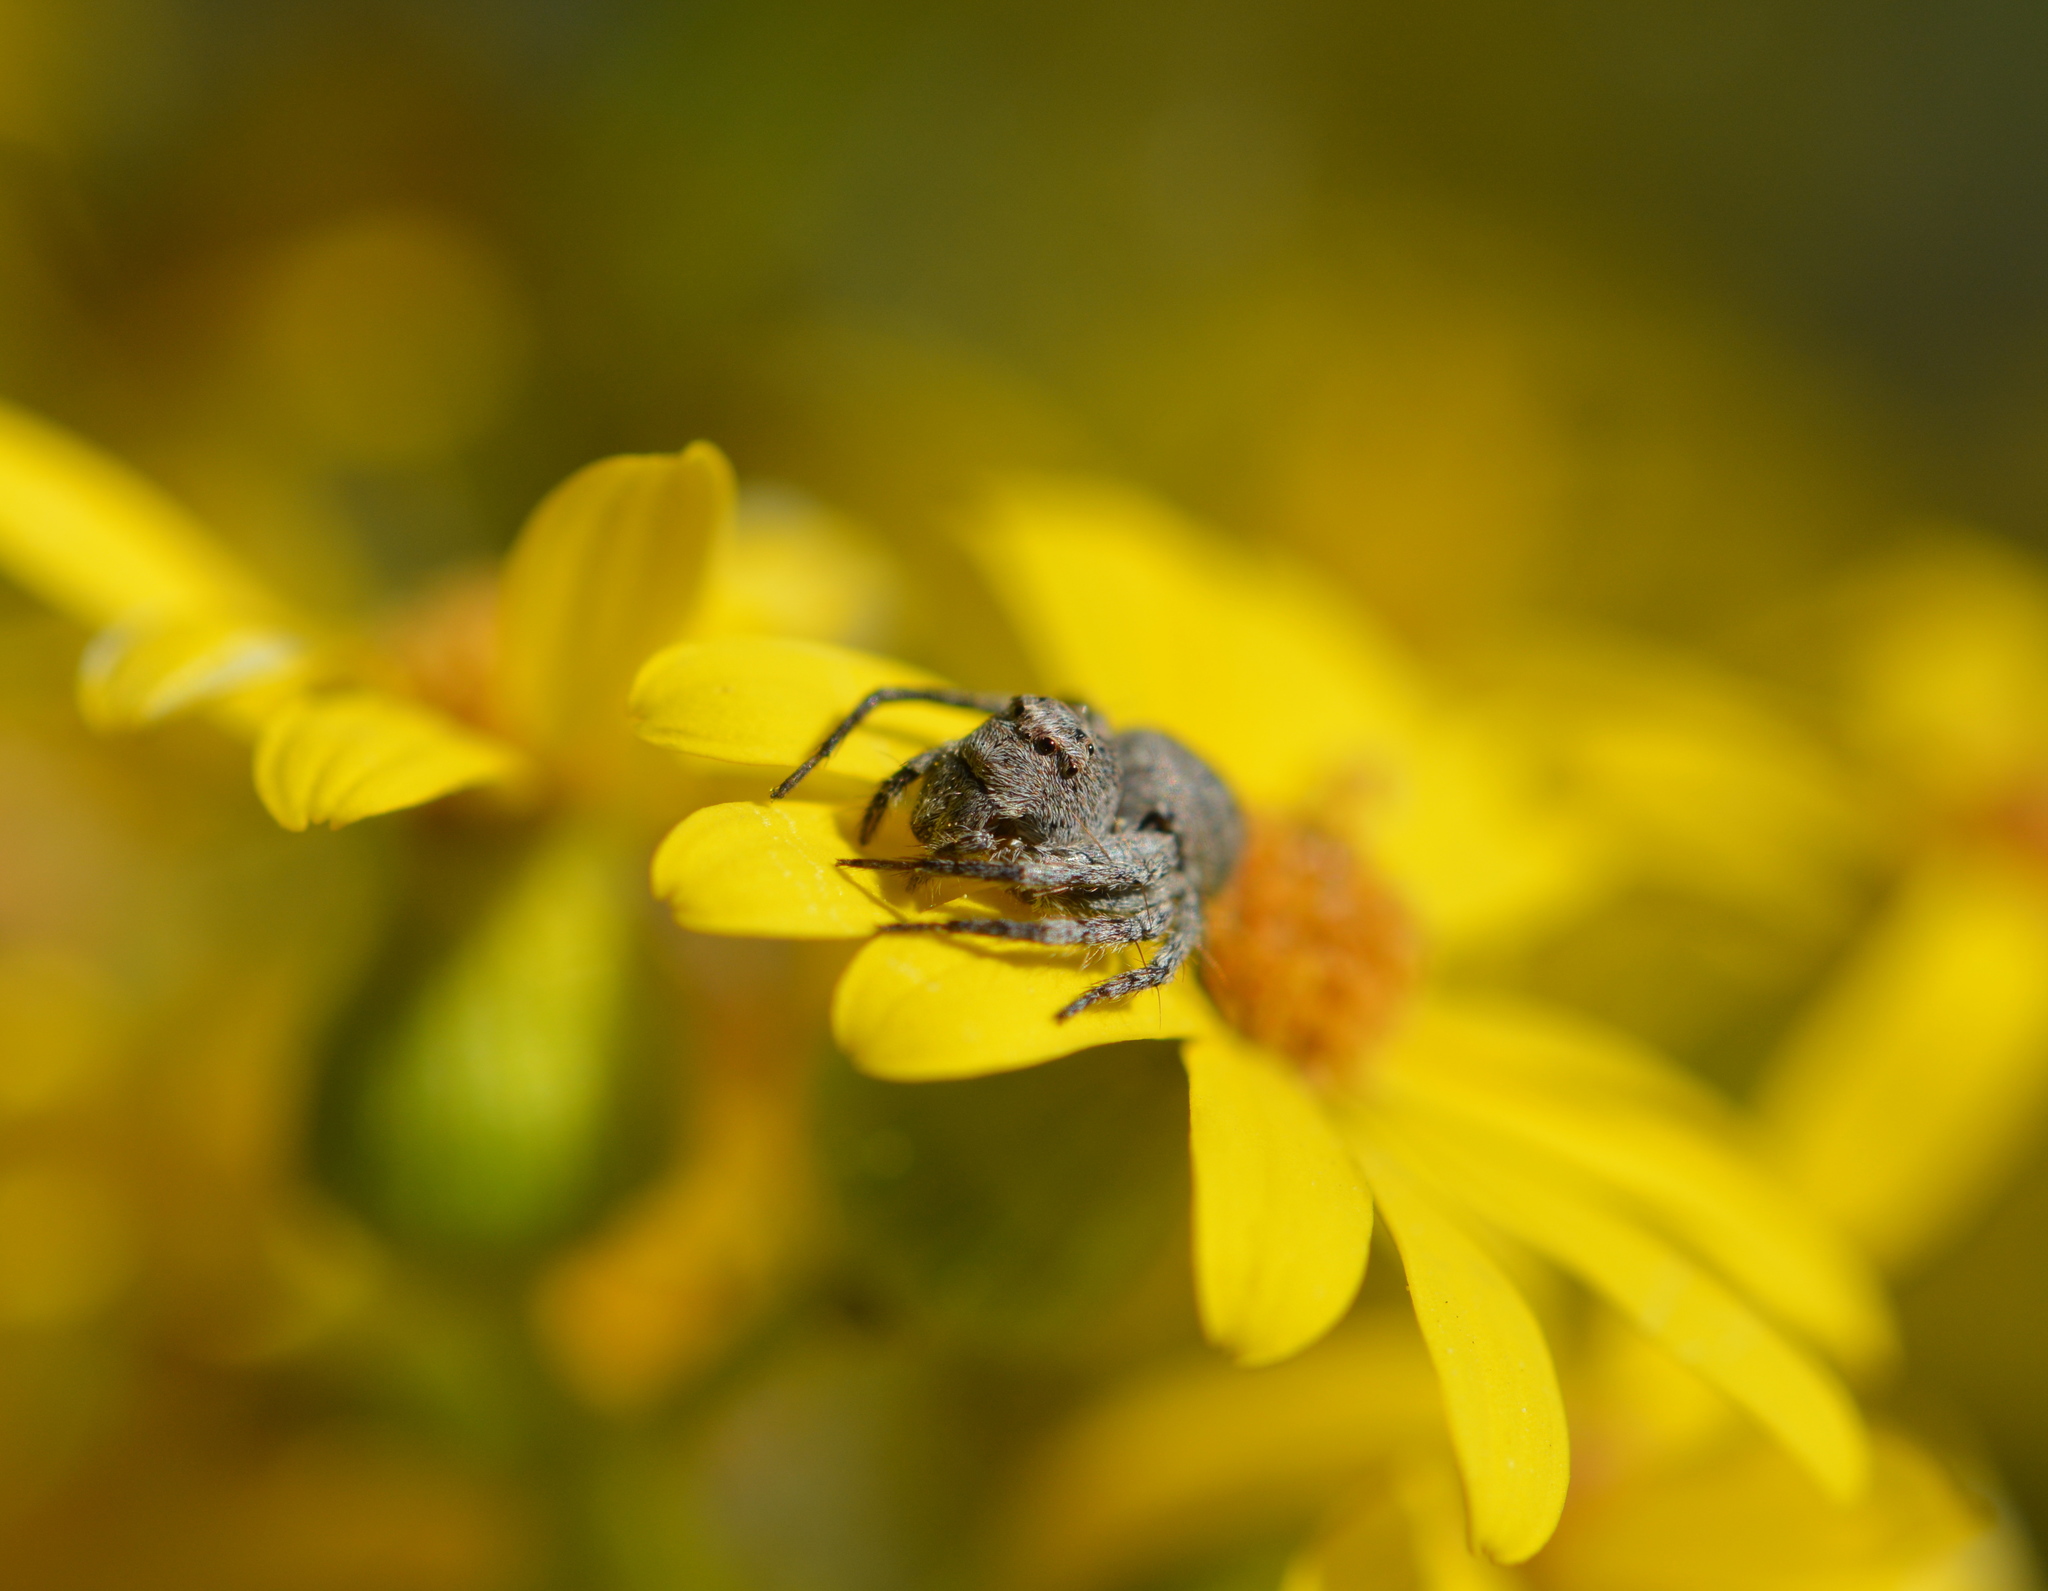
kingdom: Animalia
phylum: Arthropoda
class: Arachnida
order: Araneae
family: Oxyopidae
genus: Hamataliwa
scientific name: Hamataliwa grisea
